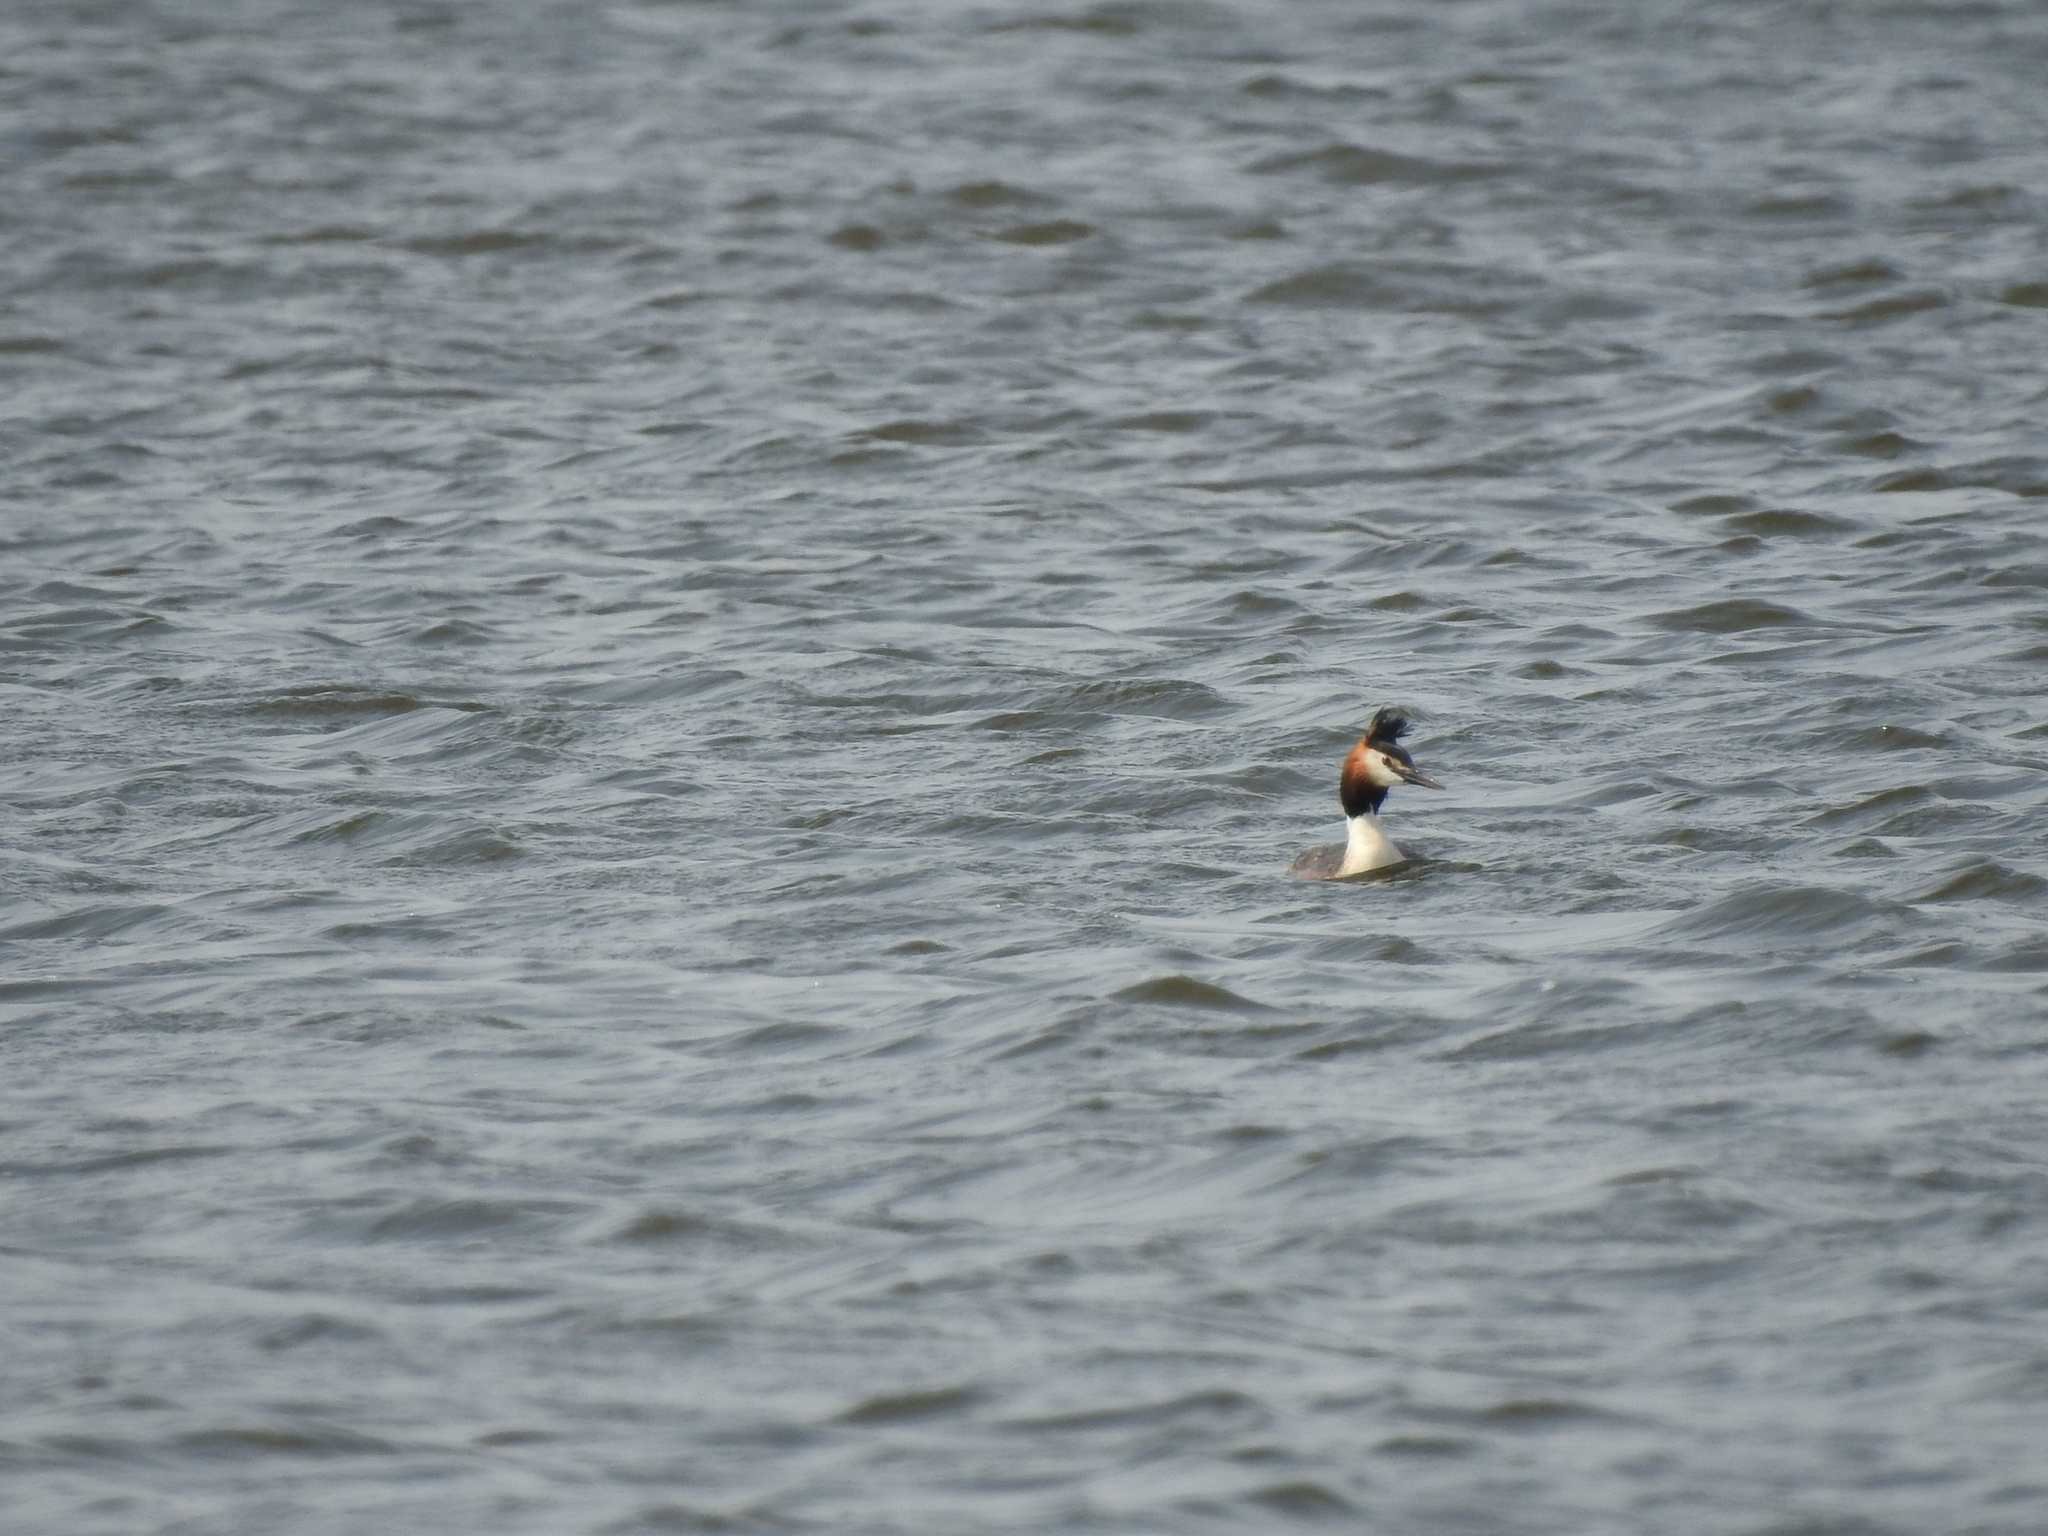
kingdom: Animalia
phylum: Chordata
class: Aves
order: Podicipediformes
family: Podicipedidae
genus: Podiceps
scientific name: Podiceps cristatus
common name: Great crested grebe
